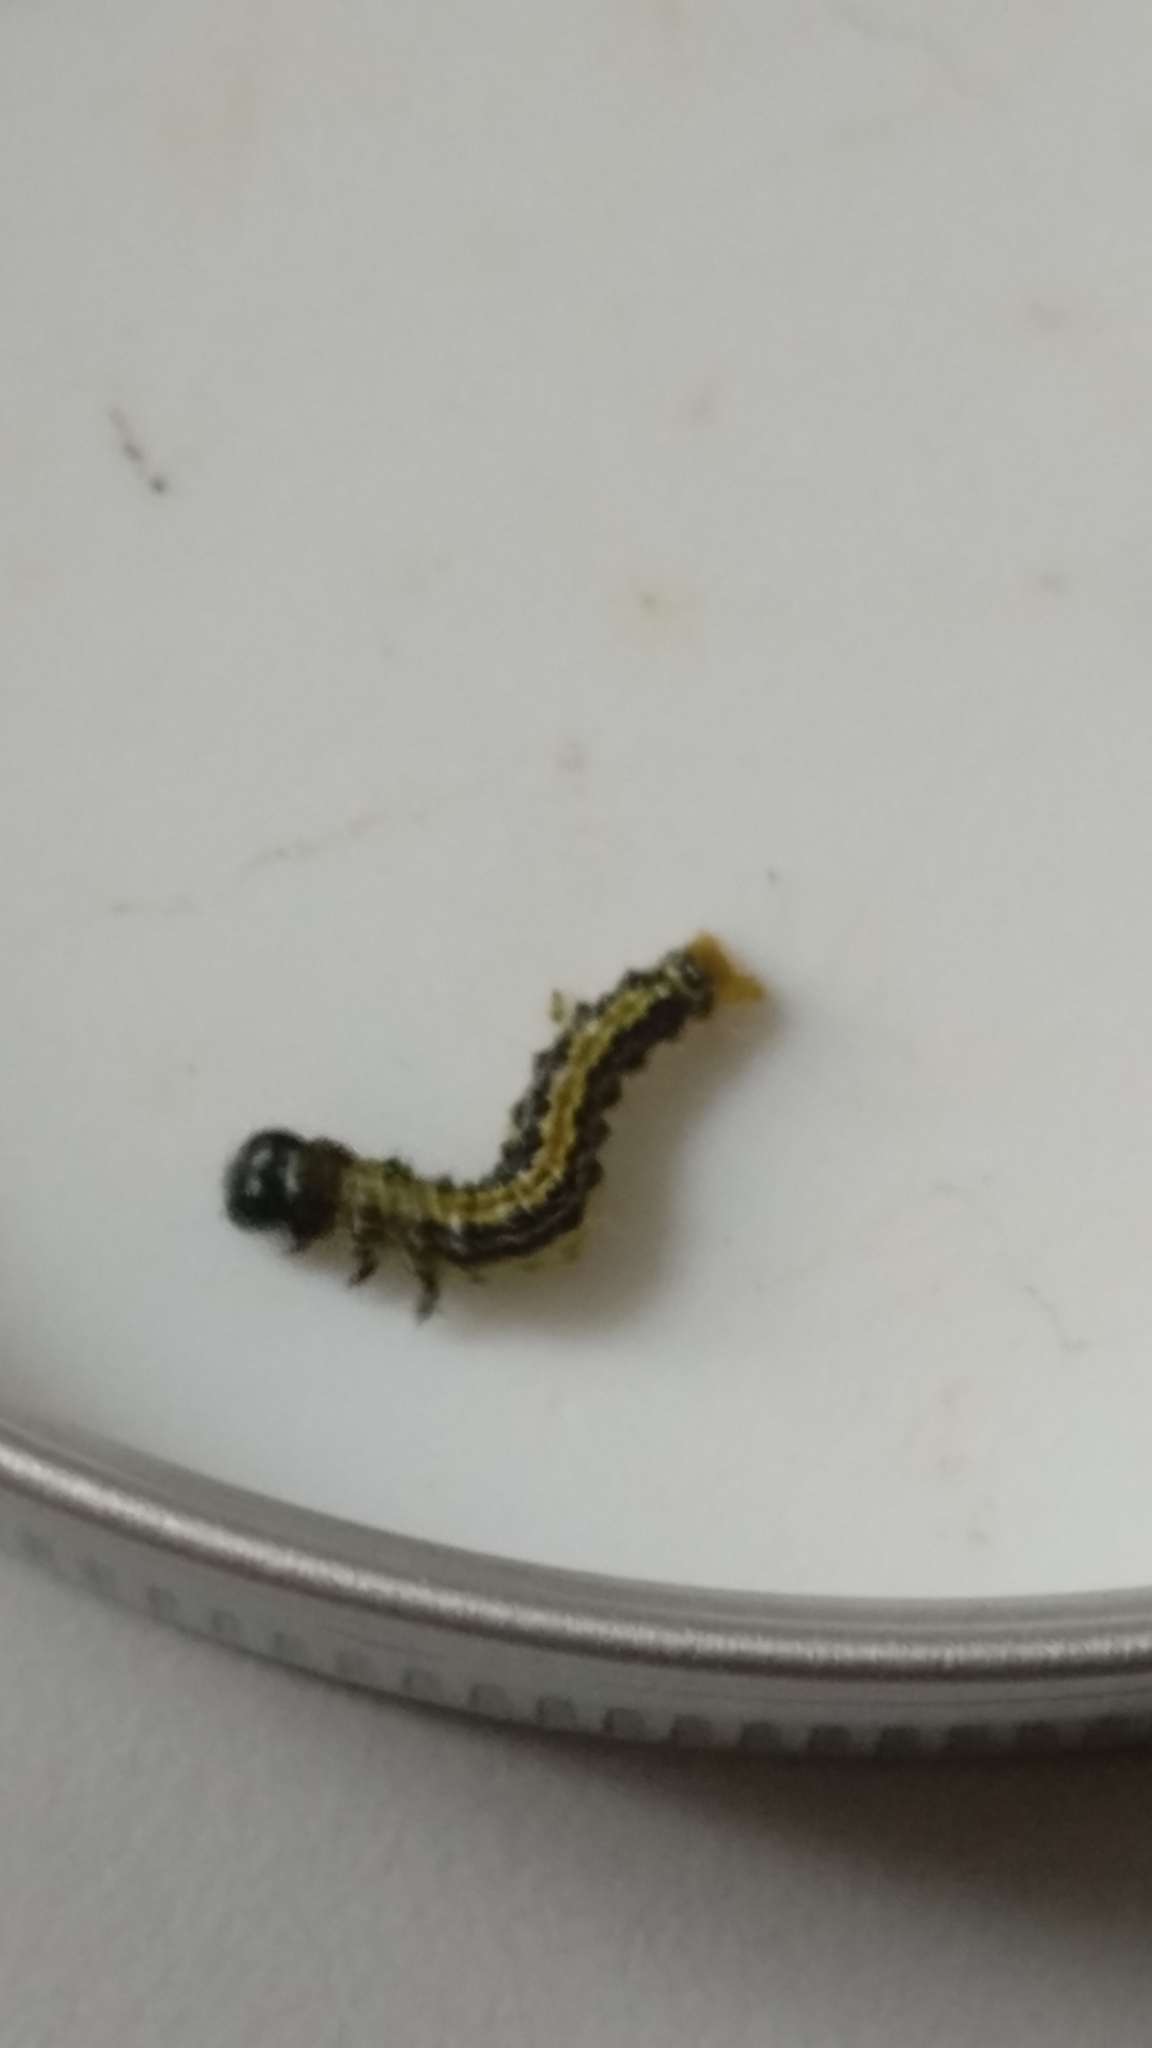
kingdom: Animalia
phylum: Arthropoda
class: Insecta
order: Lepidoptera
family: Crambidae
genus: Cydalima
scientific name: Cydalima perspectalis
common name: Box tree moth
